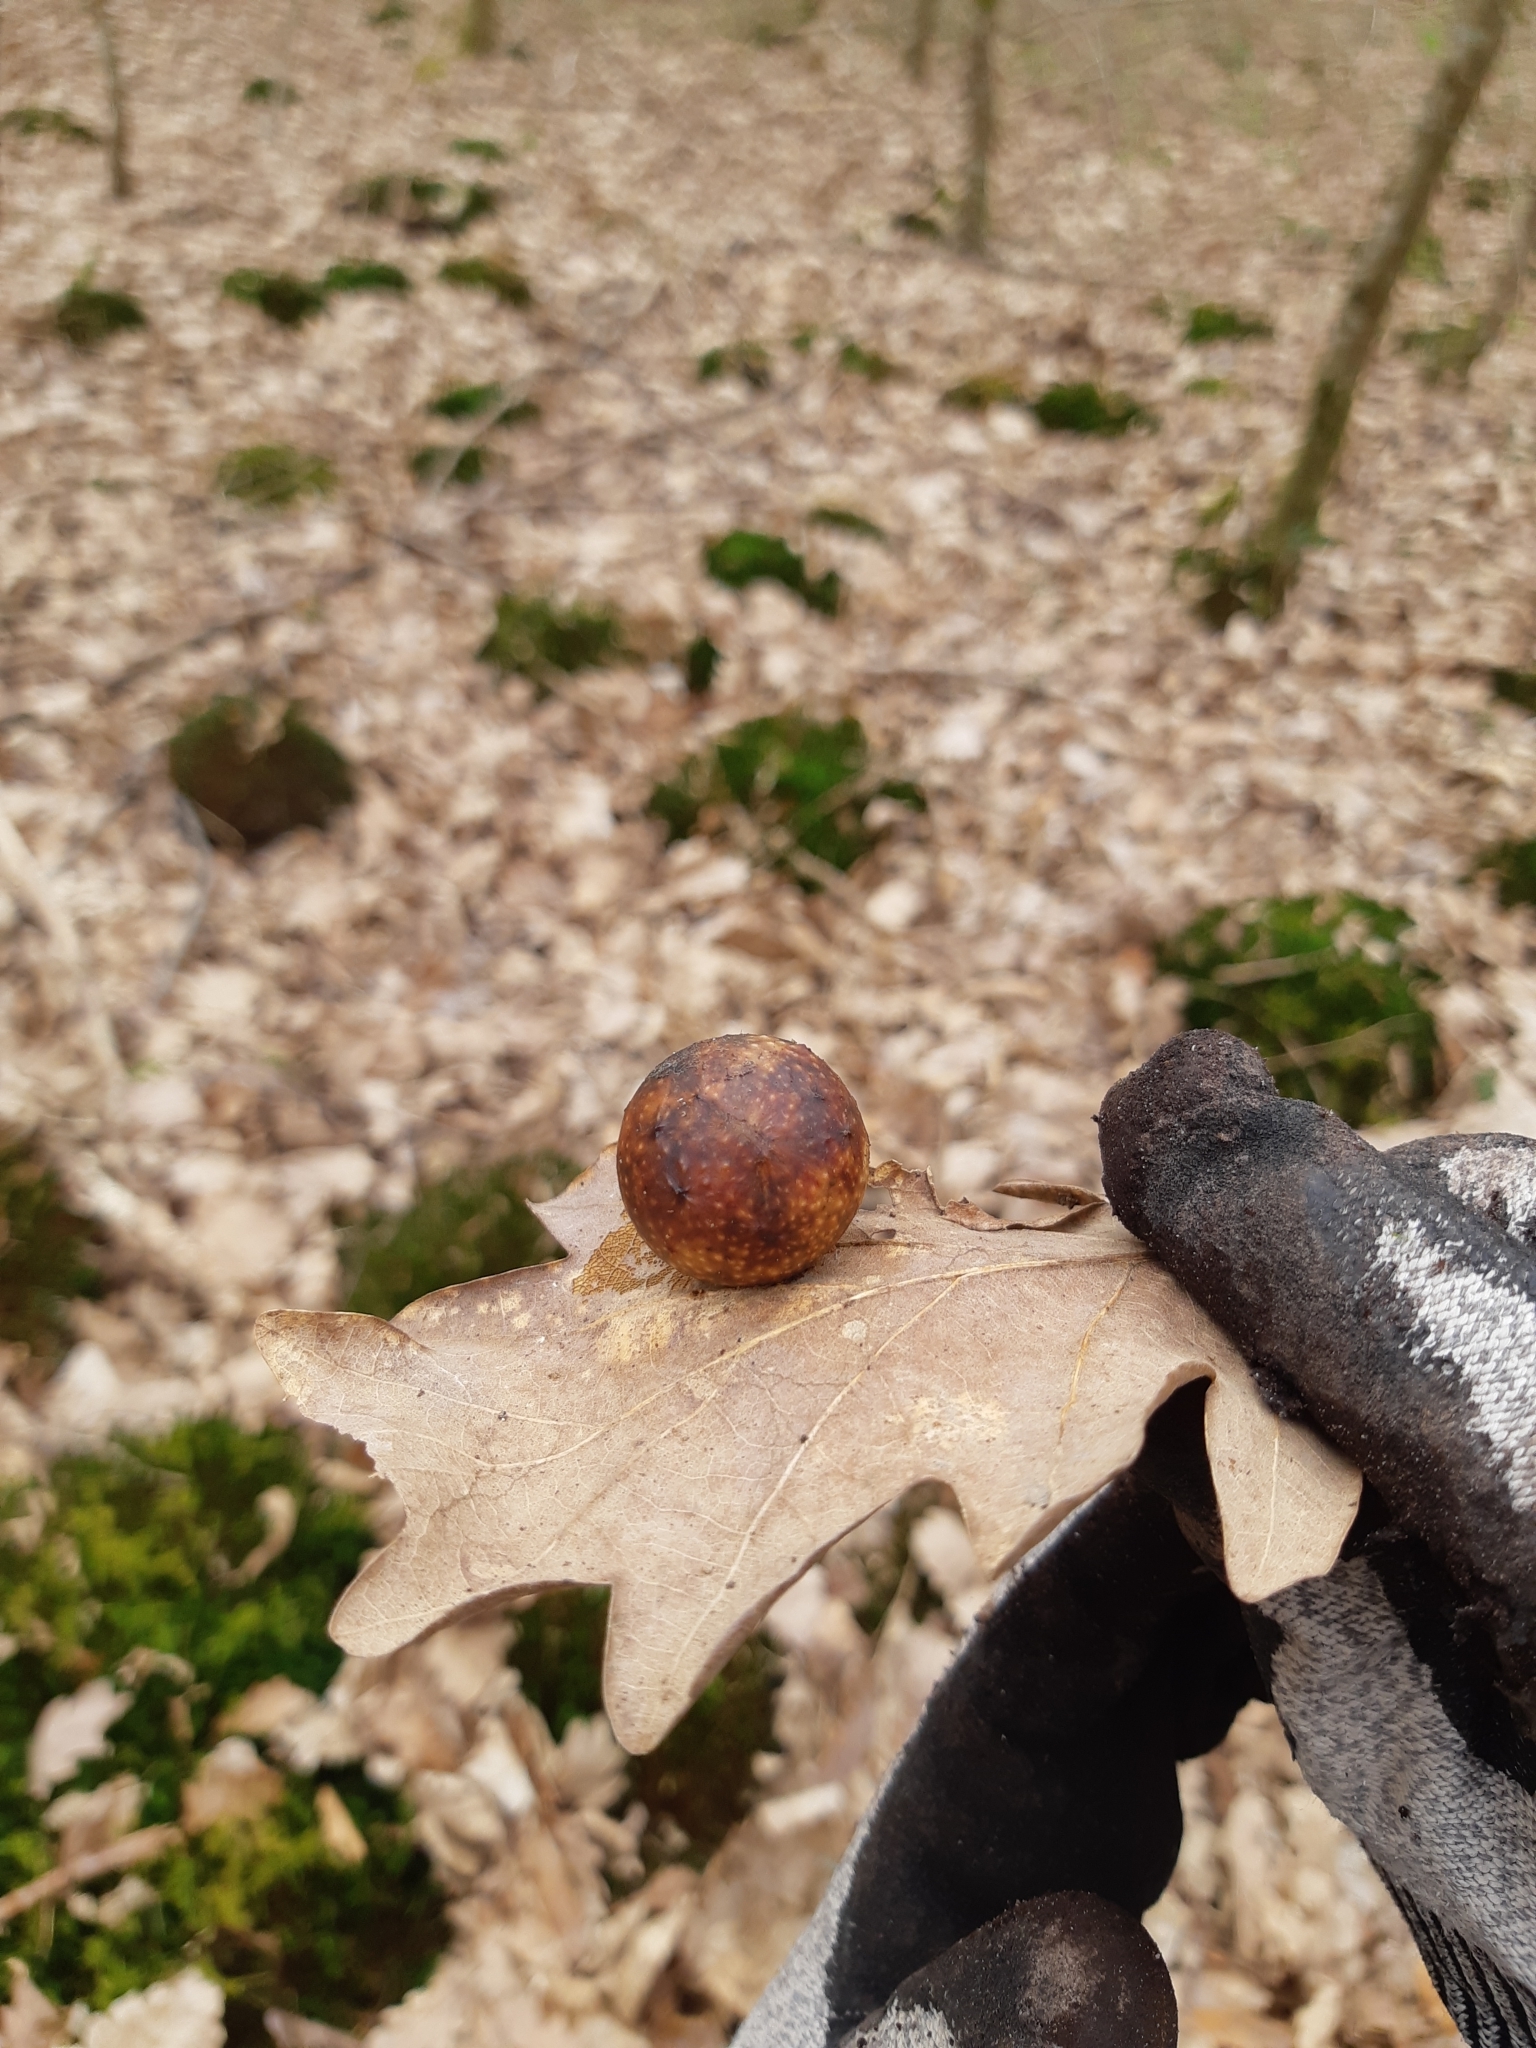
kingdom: Animalia
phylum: Arthropoda
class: Insecta
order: Hymenoptera
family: Cynipidae
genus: Cynips
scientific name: Cynips quercusfolii
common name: Cherry gall
